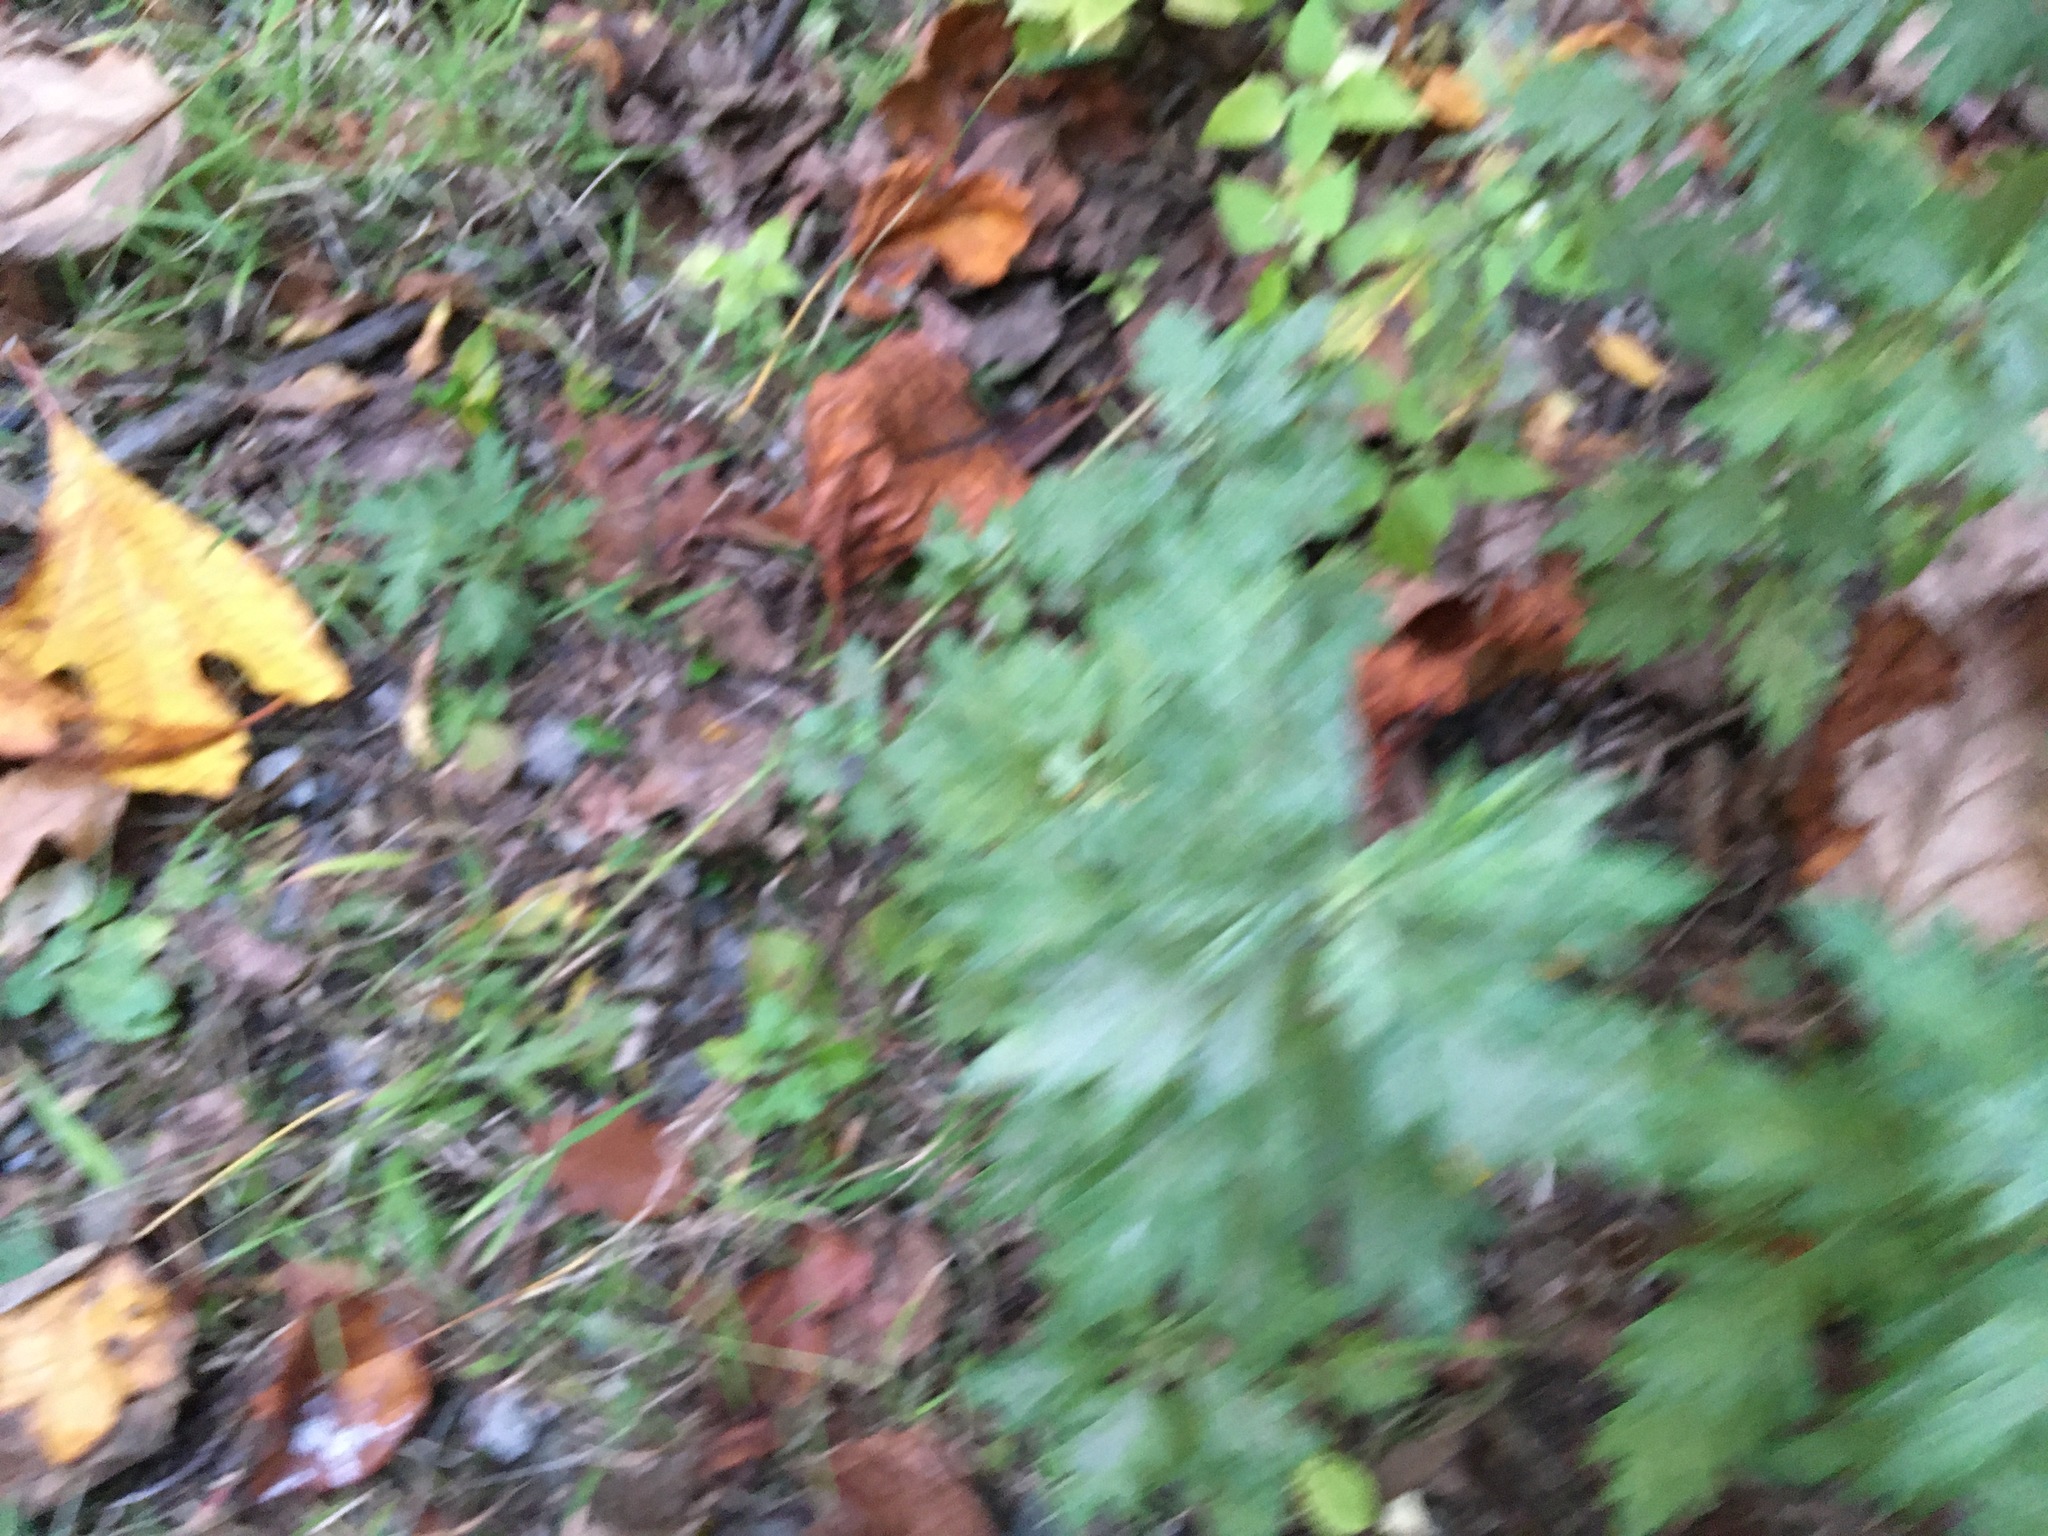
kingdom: Plantae
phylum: Tracheophyta
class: Magnoliopsida
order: Asterales
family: Asteraceae
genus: Artemisia
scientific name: Artemisia vulgaris
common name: Mugwort
